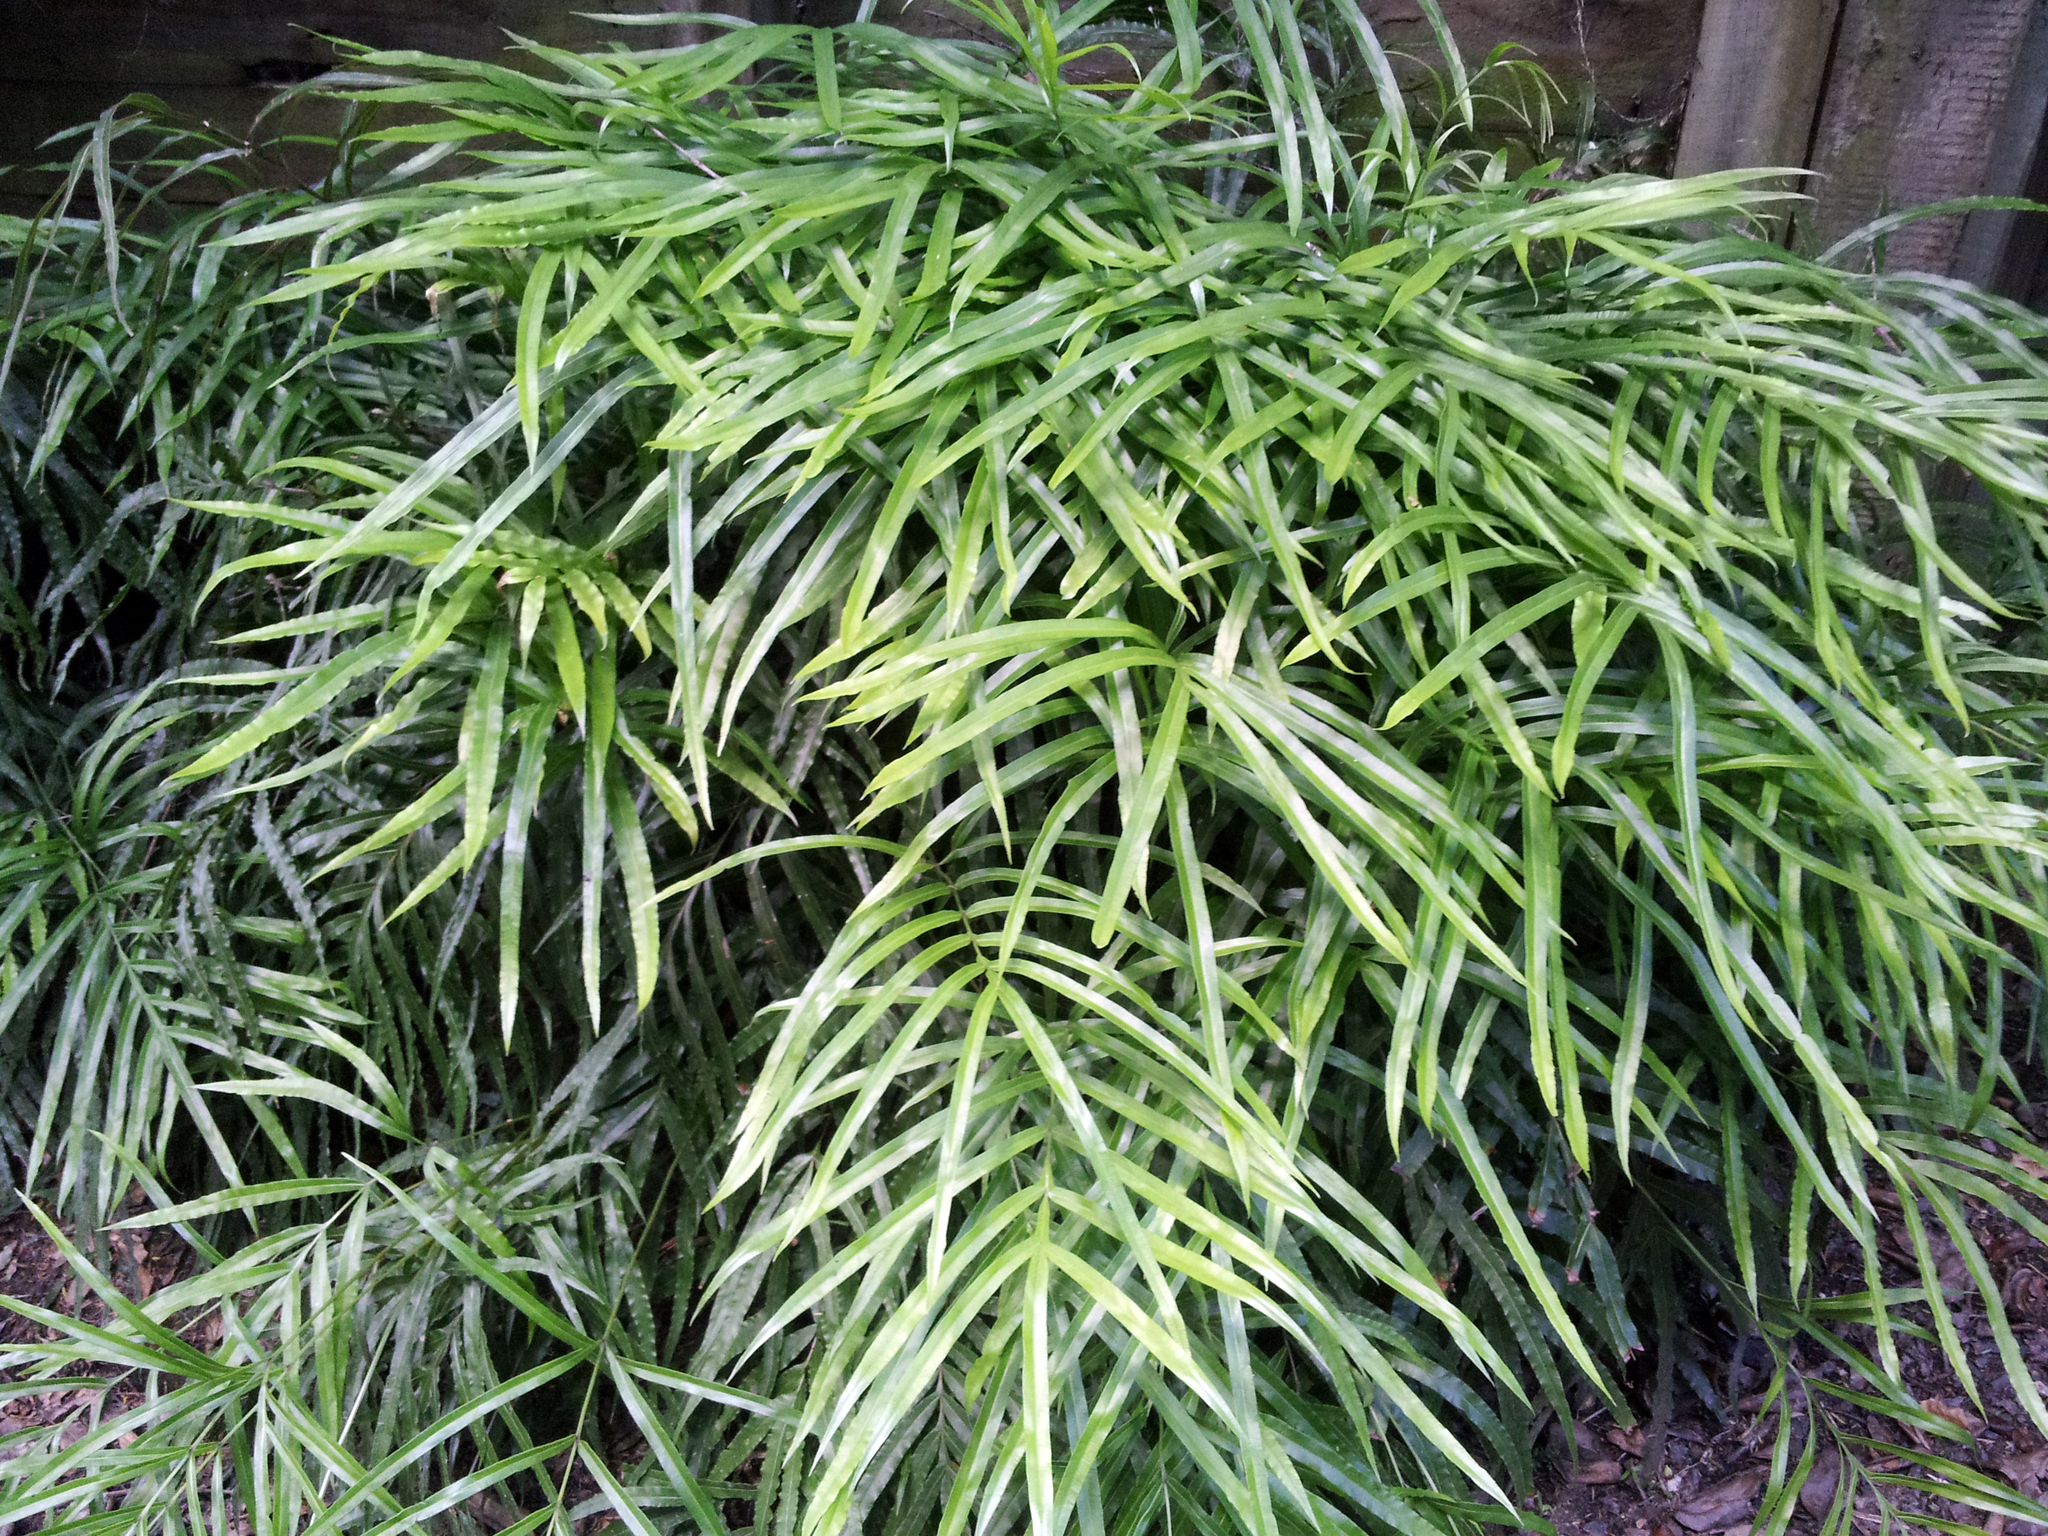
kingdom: Plantae
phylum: Tracheophyta
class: Polypodiopsida
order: Polypodiales
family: Pteridaceae
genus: Pteris
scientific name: Pteris cretica
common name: Ribbon fern
